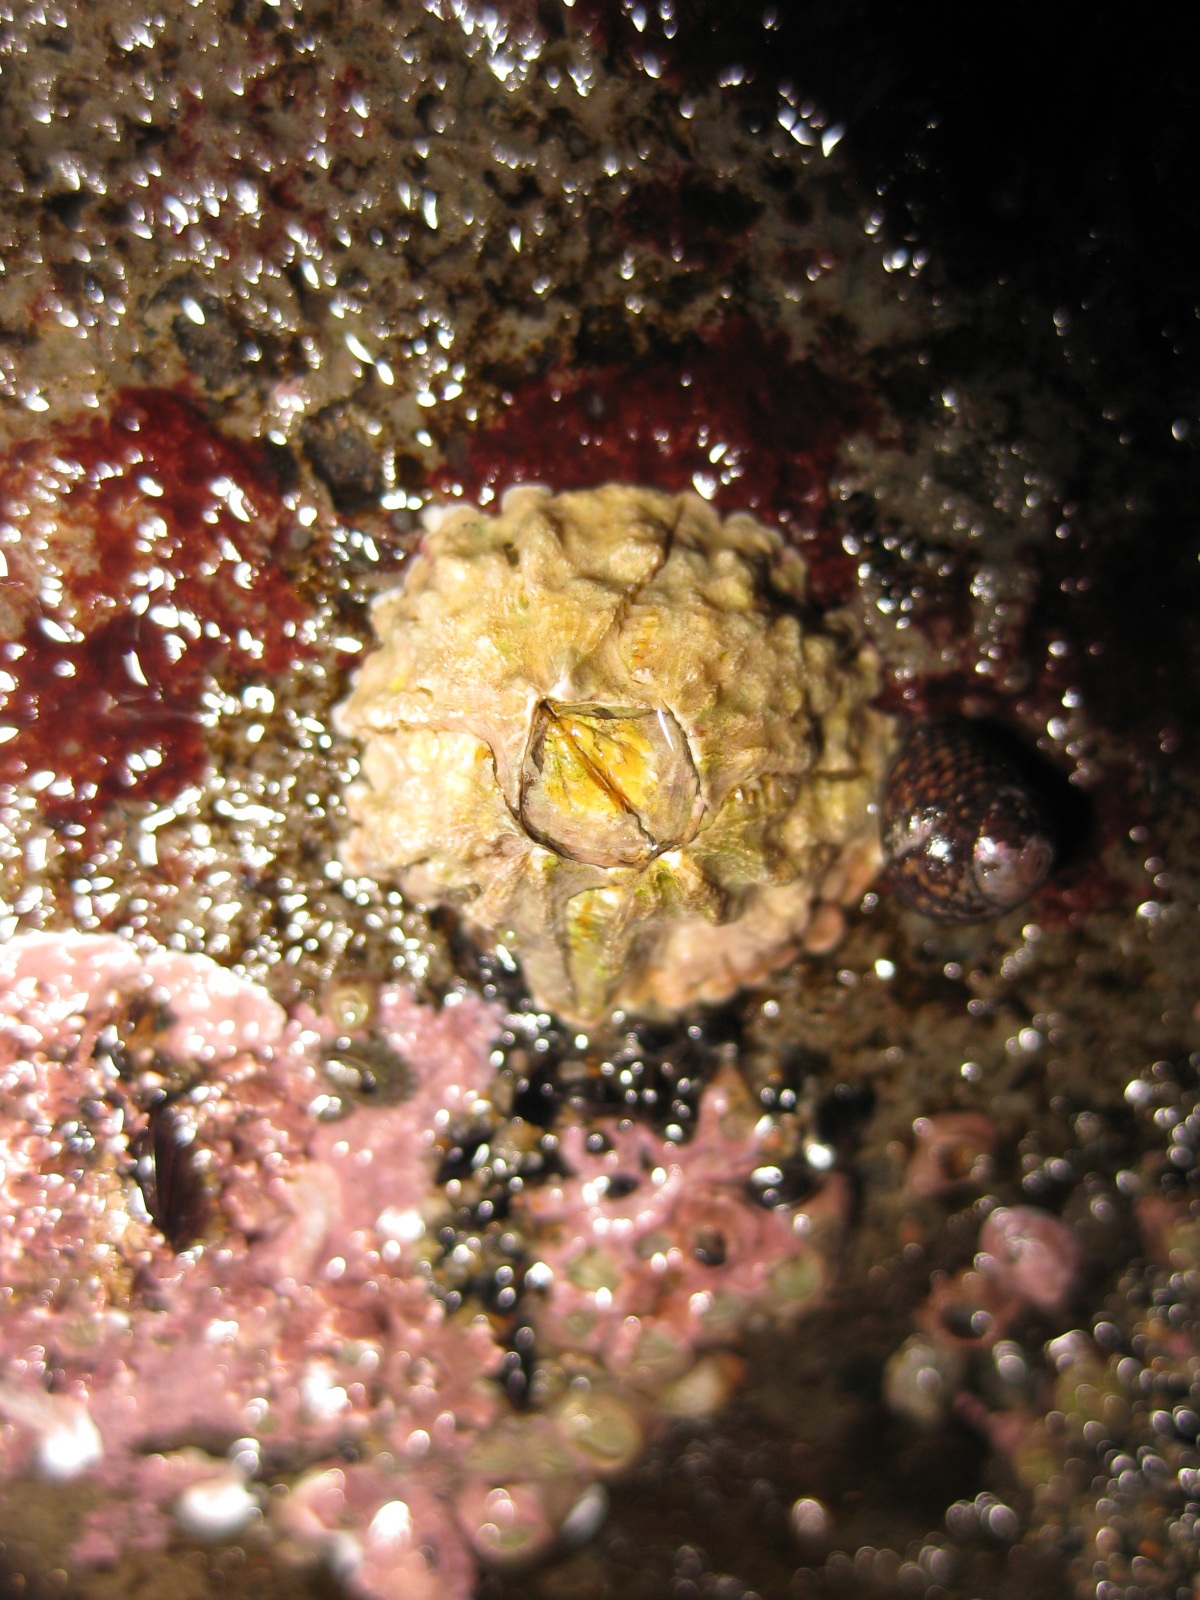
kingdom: Animalia
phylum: Arthropoda
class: Maxillopoda
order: Sessilia
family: Tetraclitidae
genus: Tetraclitella
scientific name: Tetraclitella depressa
